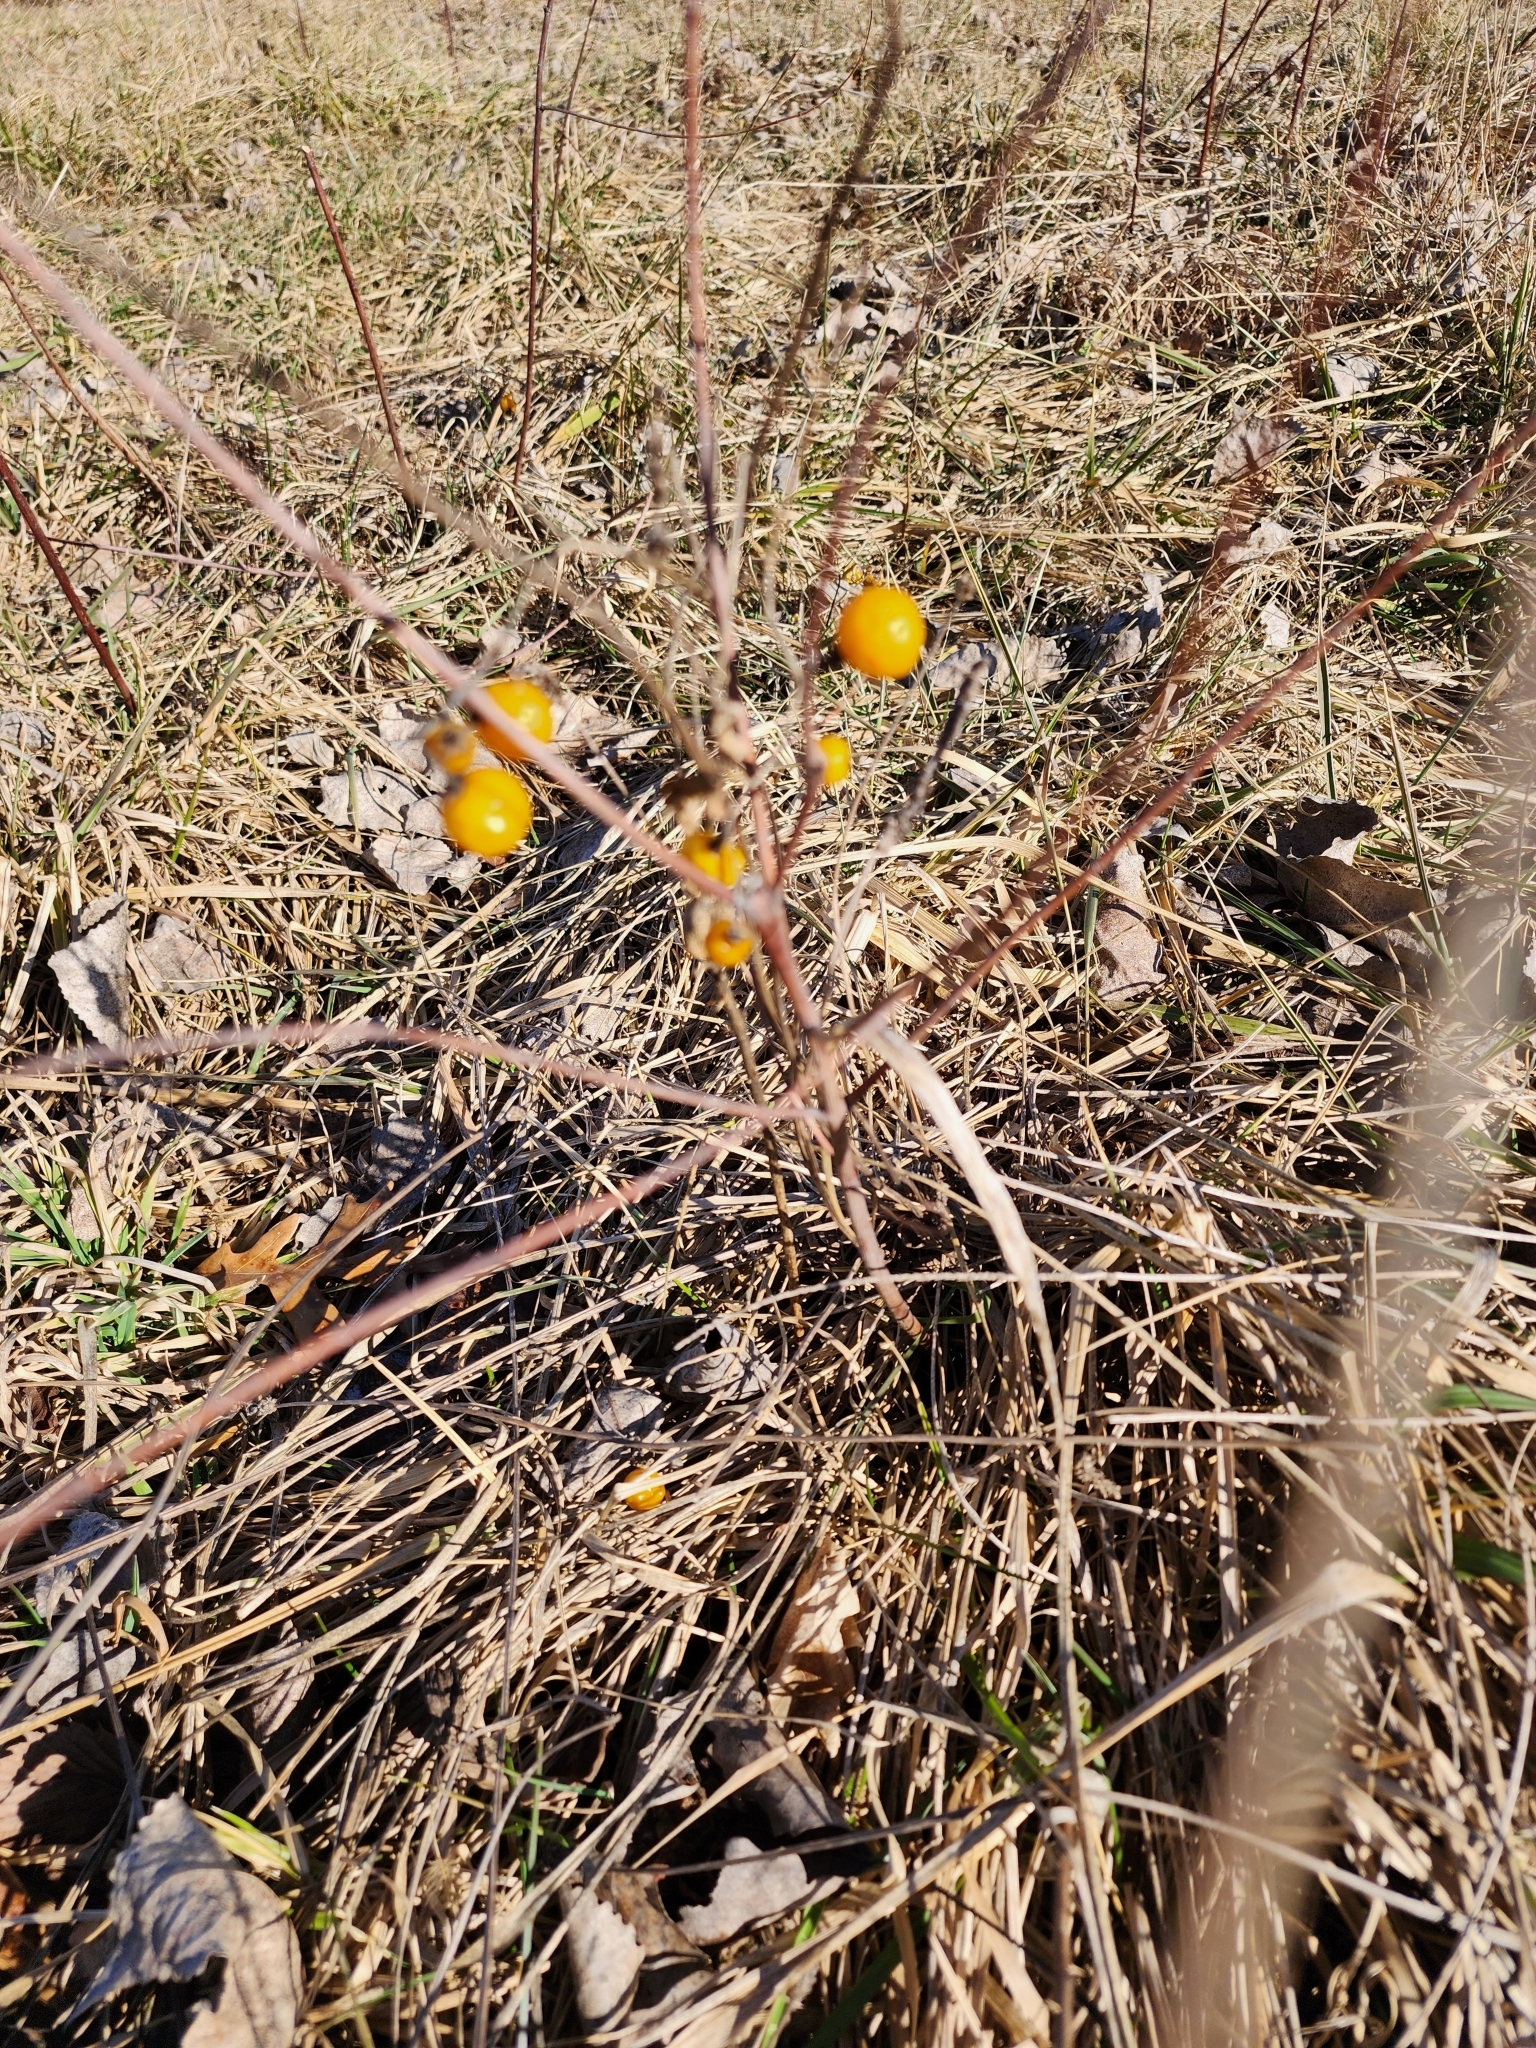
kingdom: Plantae
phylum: Tracheophyta
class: Magnoliopsida
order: Solanales
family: Solanaceae
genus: Solanum
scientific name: Solanum carolinense
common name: Horse-nettle
